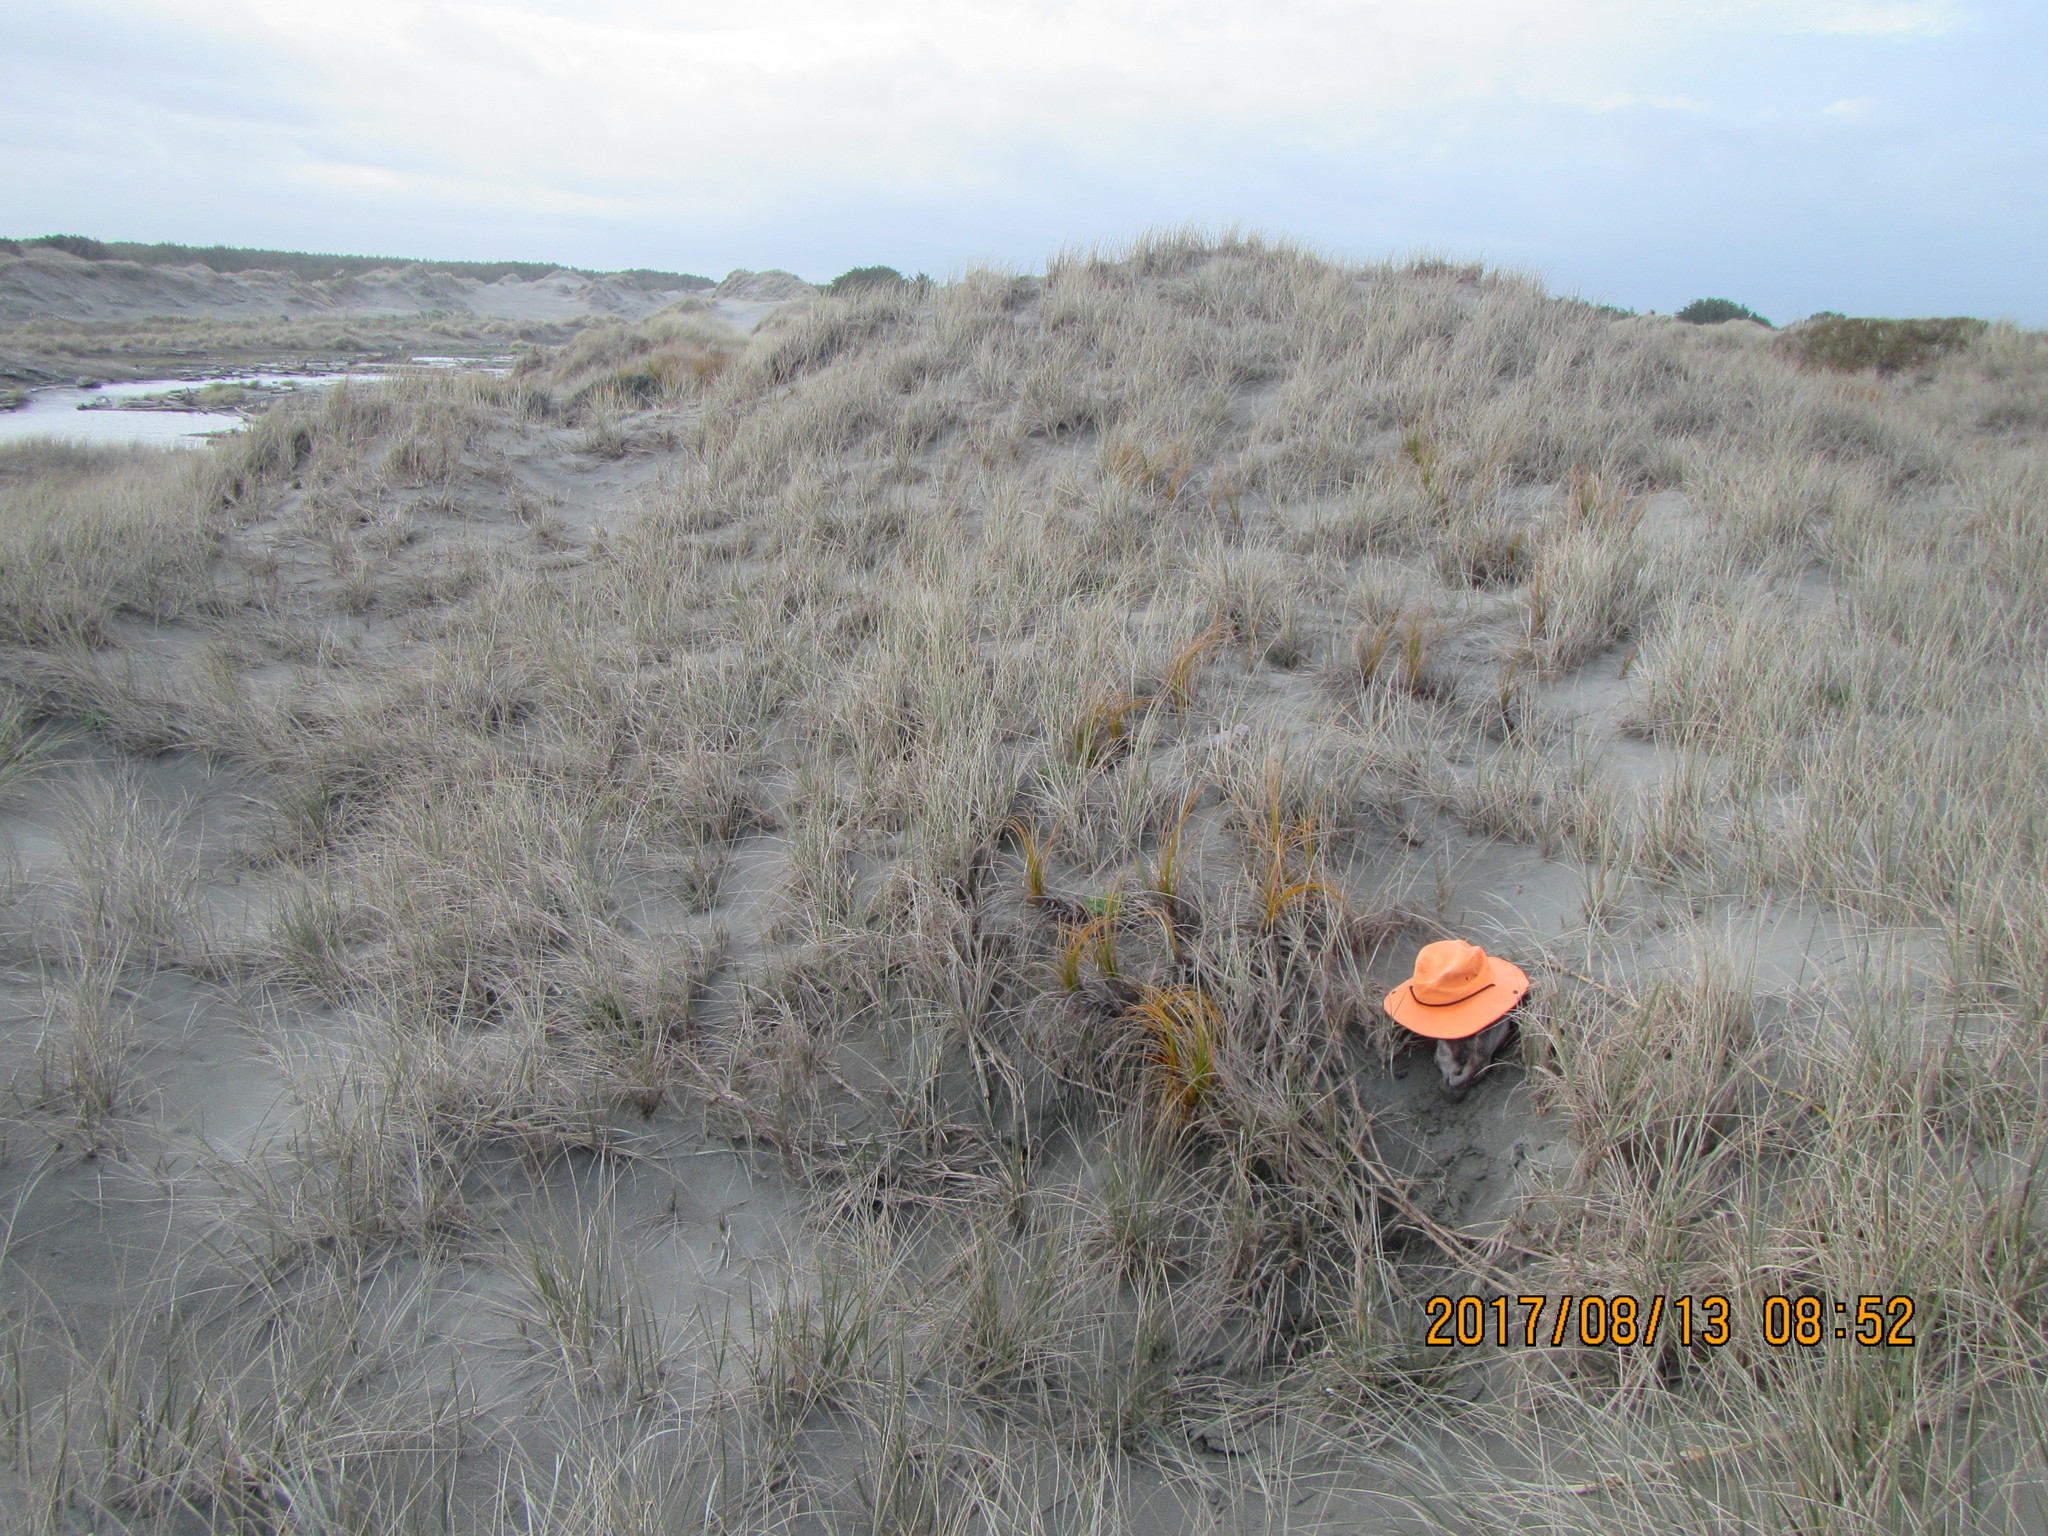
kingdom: Animalia
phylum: Arthropoda
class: Arachnida
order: Araneae
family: Theridiidae
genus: Steatoda
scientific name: Steatoda capensis
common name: Cobweb weaver
